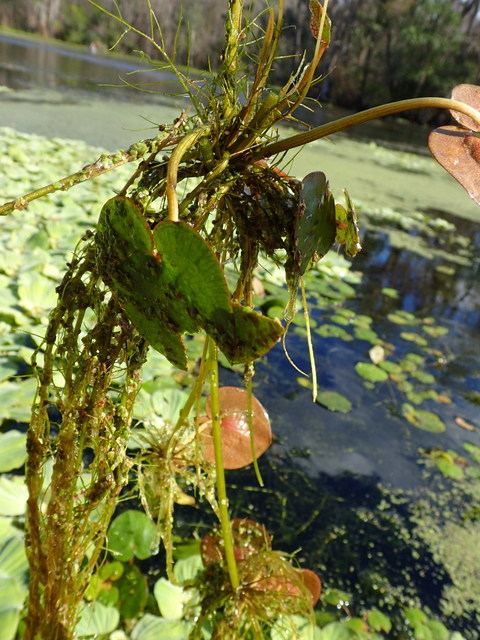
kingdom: Plantae
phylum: Tracheophyta
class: Liliopsida
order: Alismatales
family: Hydrocharitaceae
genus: Hydrocharis
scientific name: Hydrocharis spongia
